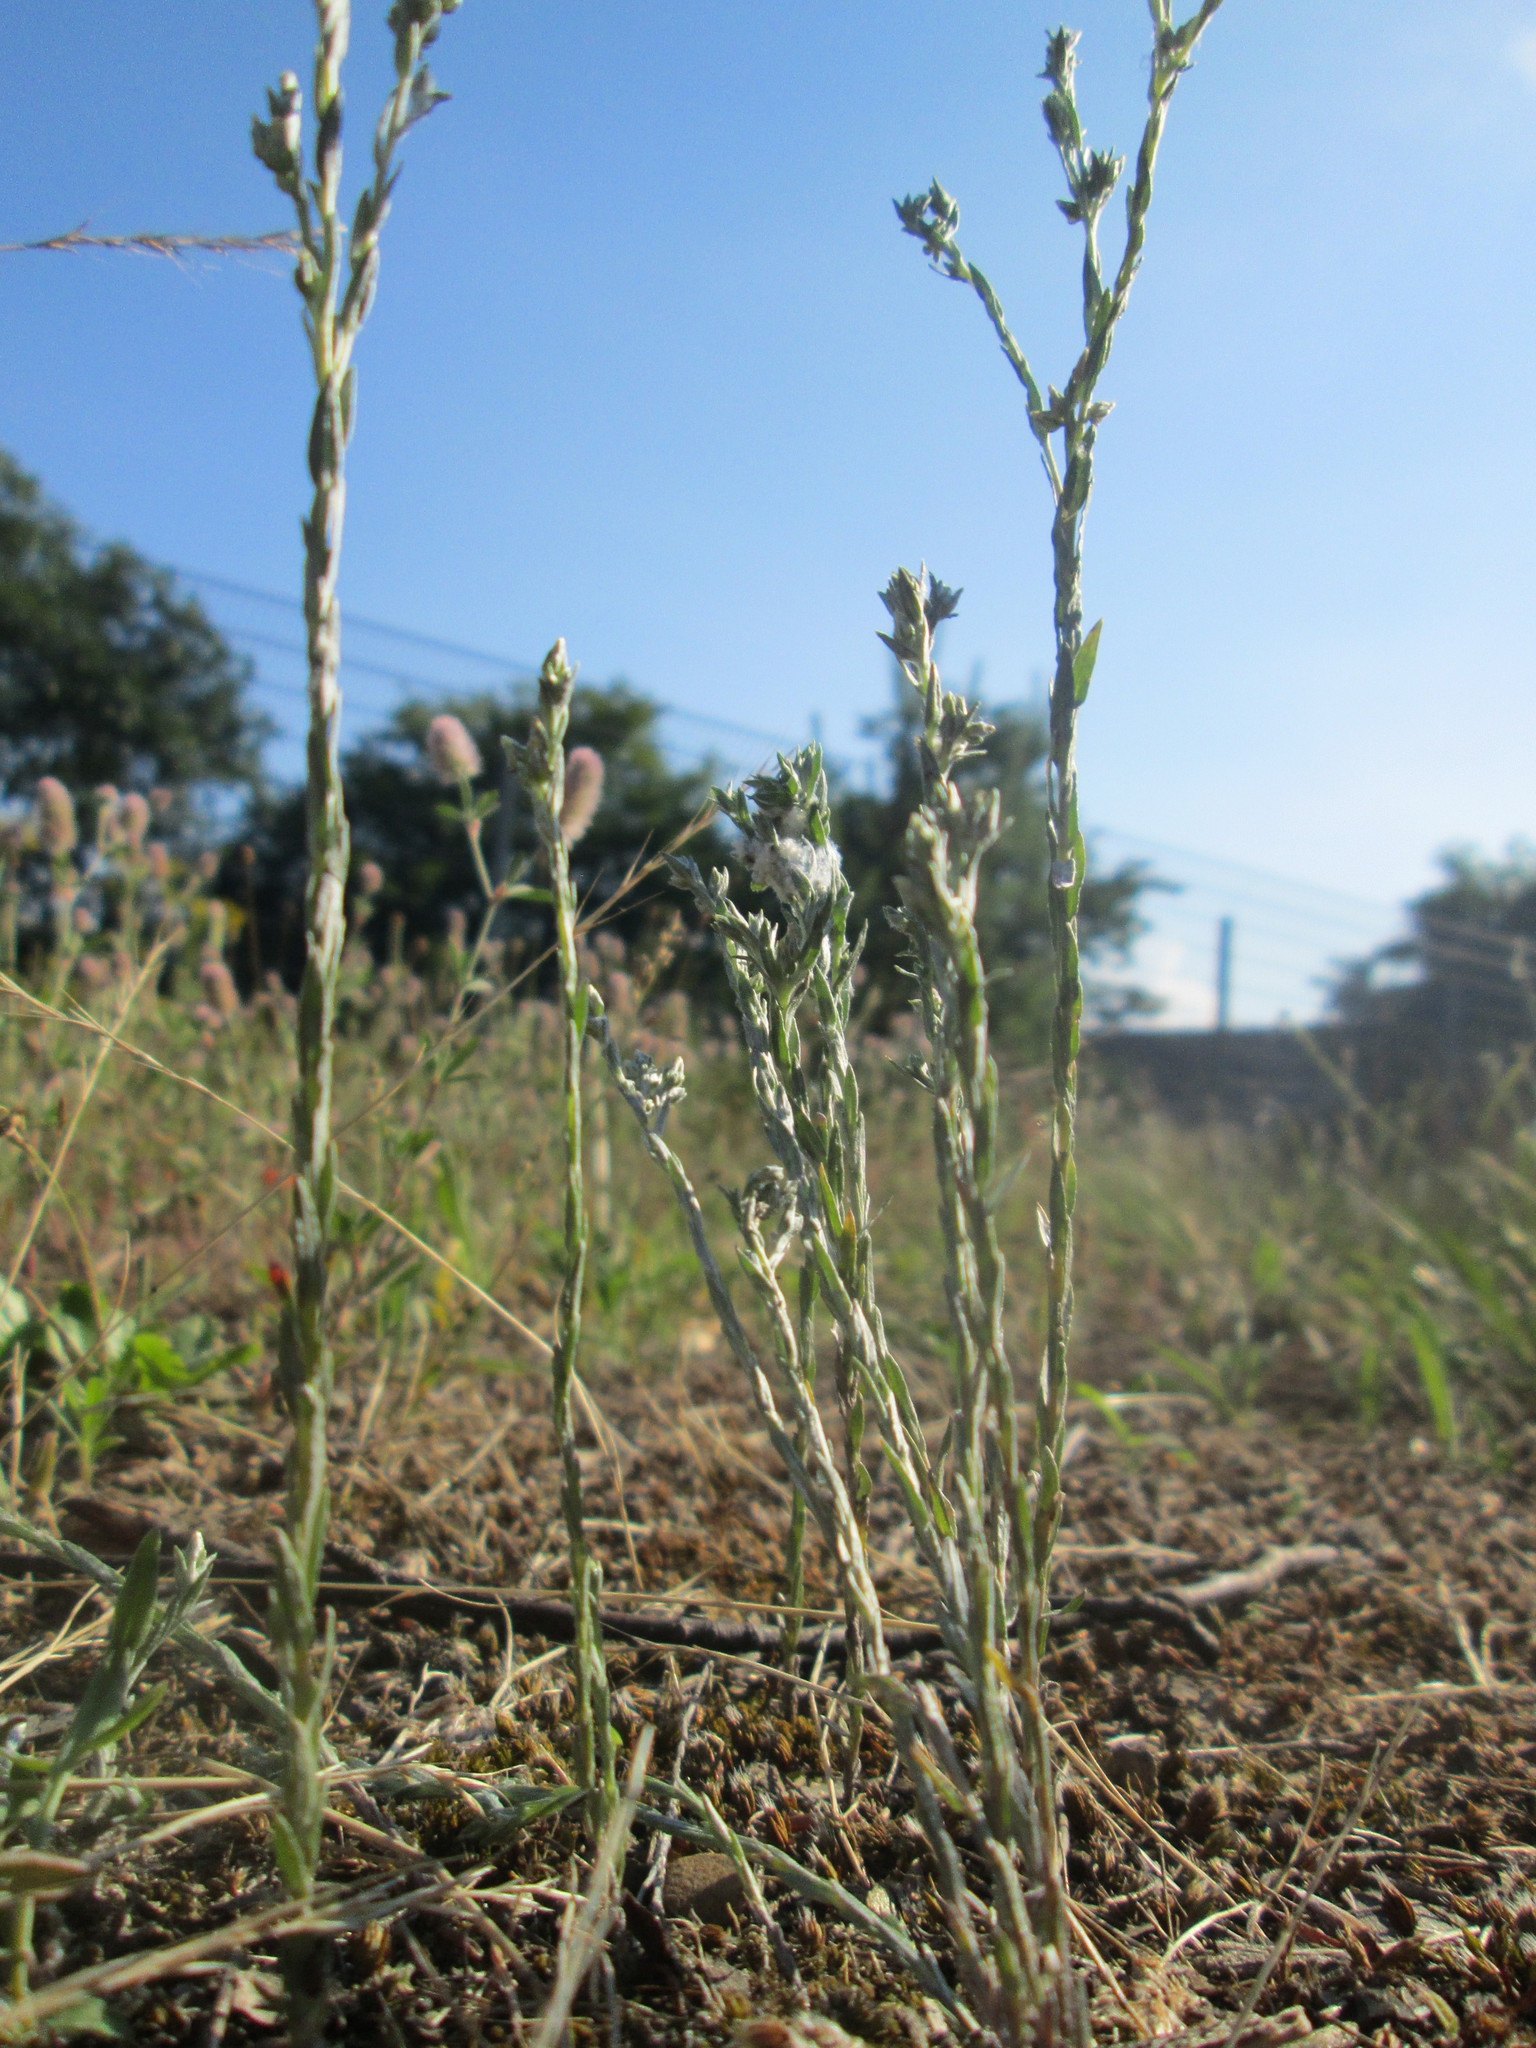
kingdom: Plantae
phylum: Tracheophyta
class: Magnoliopsida
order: Asterales
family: Asteraceae
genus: Logfia
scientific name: Logfia minima
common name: Little cottonrose
